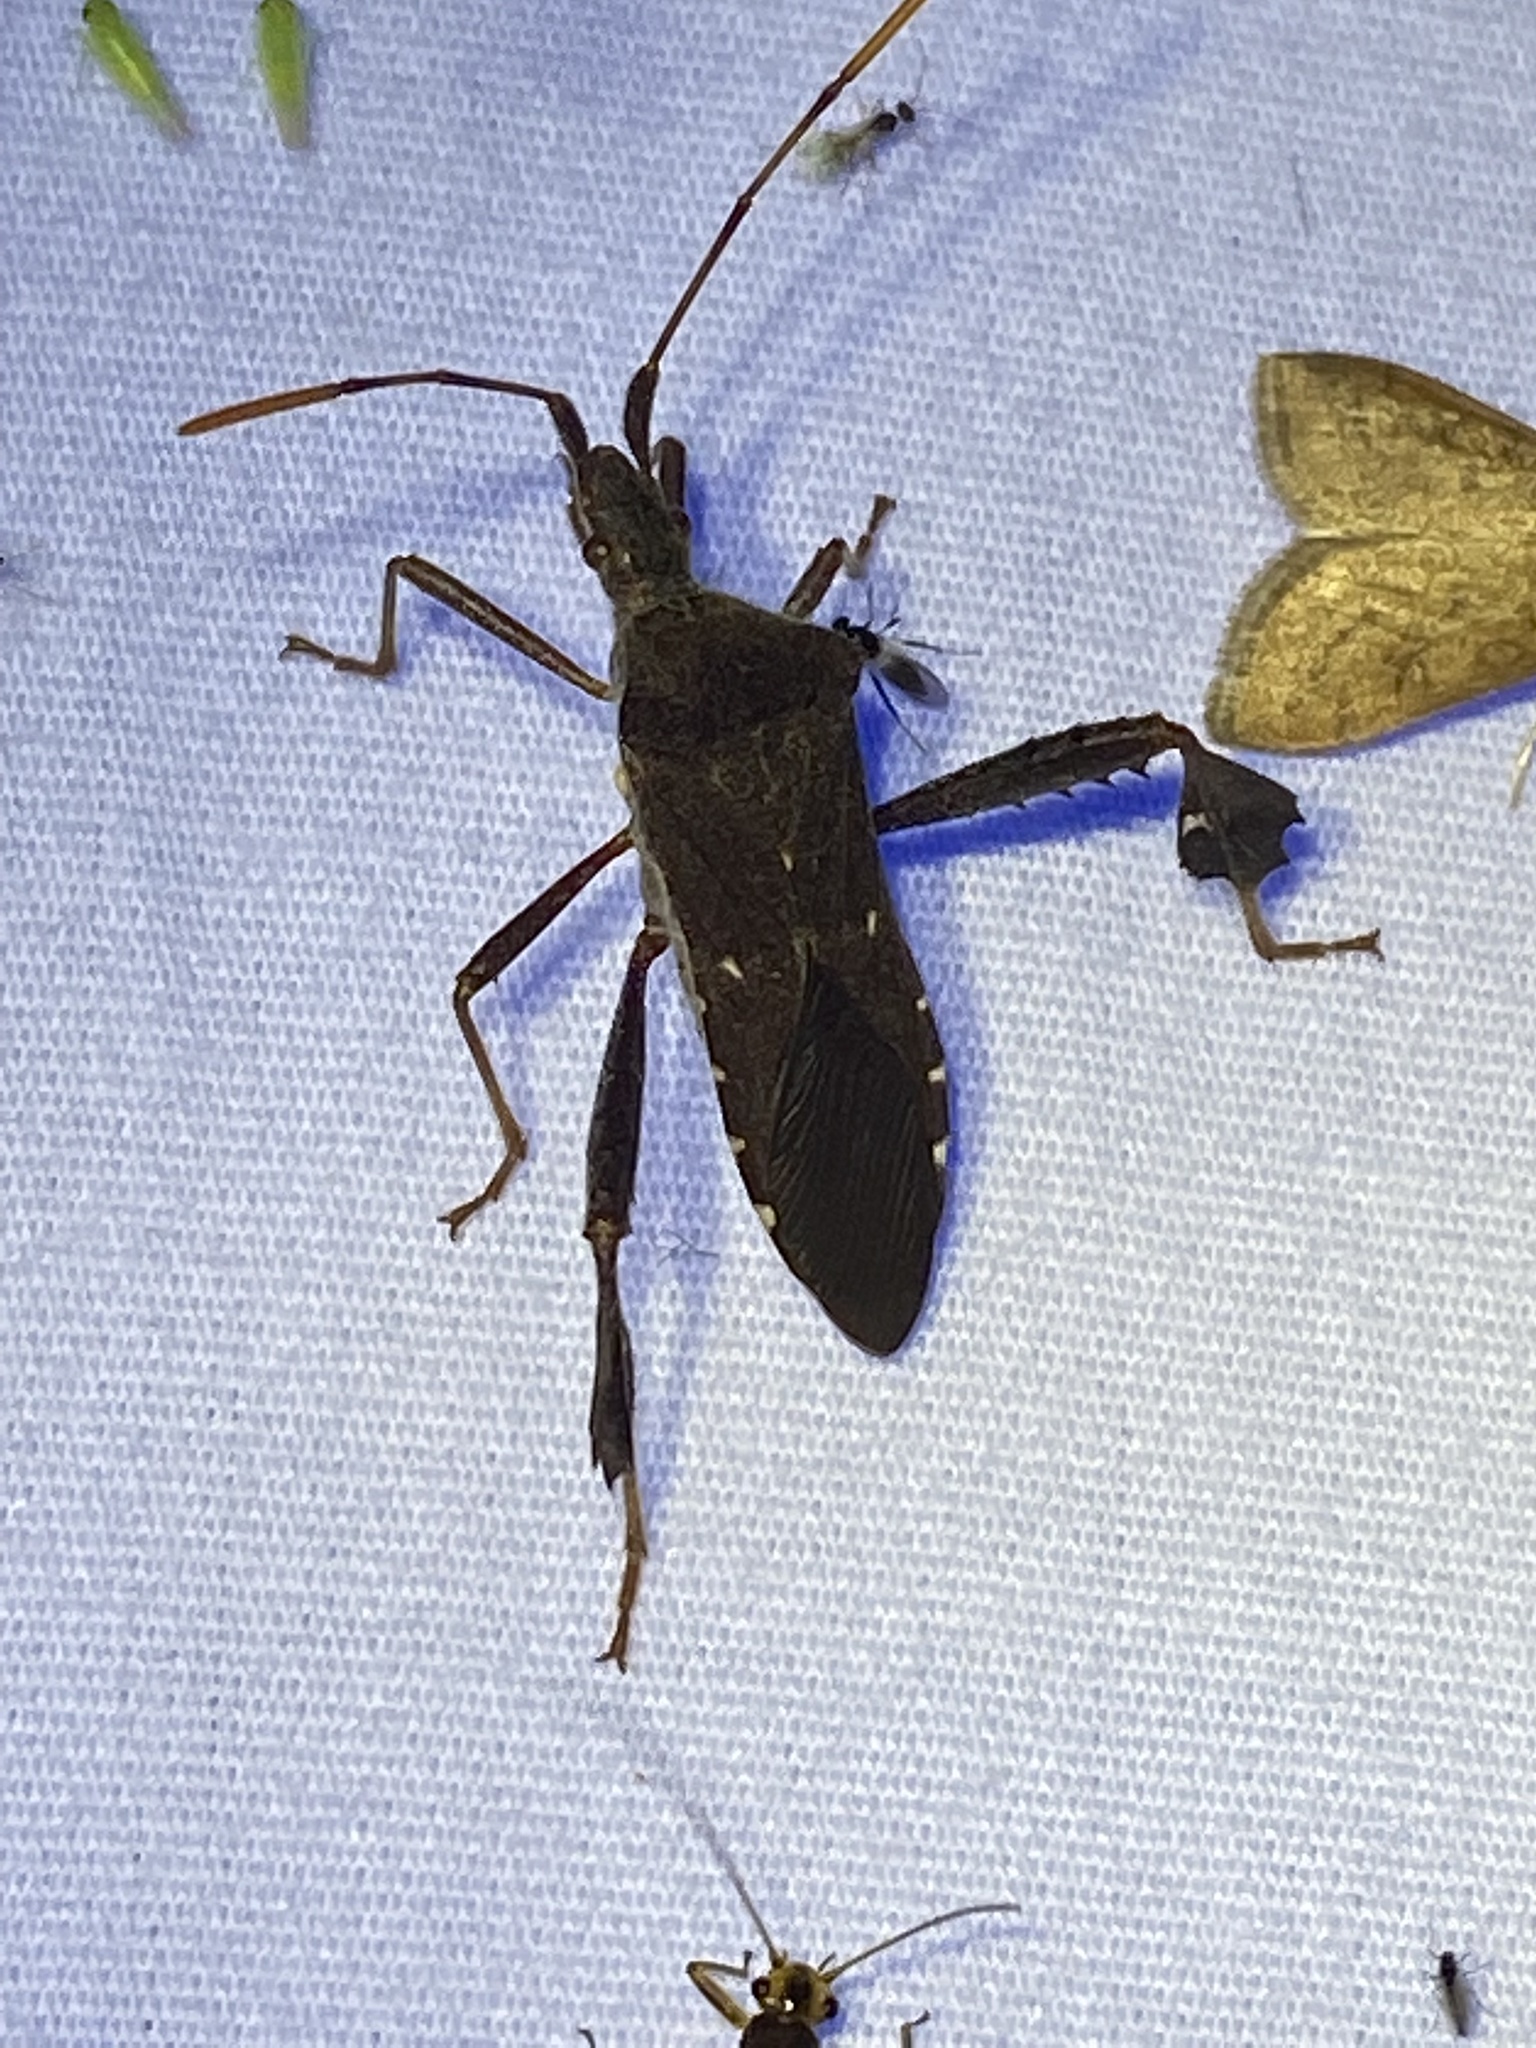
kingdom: Animalia
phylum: Arthropoda
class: Insecta
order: Hemiptera
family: Coreidae
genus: Leptoglossus
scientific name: Leptoglossus oppositus
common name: Northern leaf-footed bug
